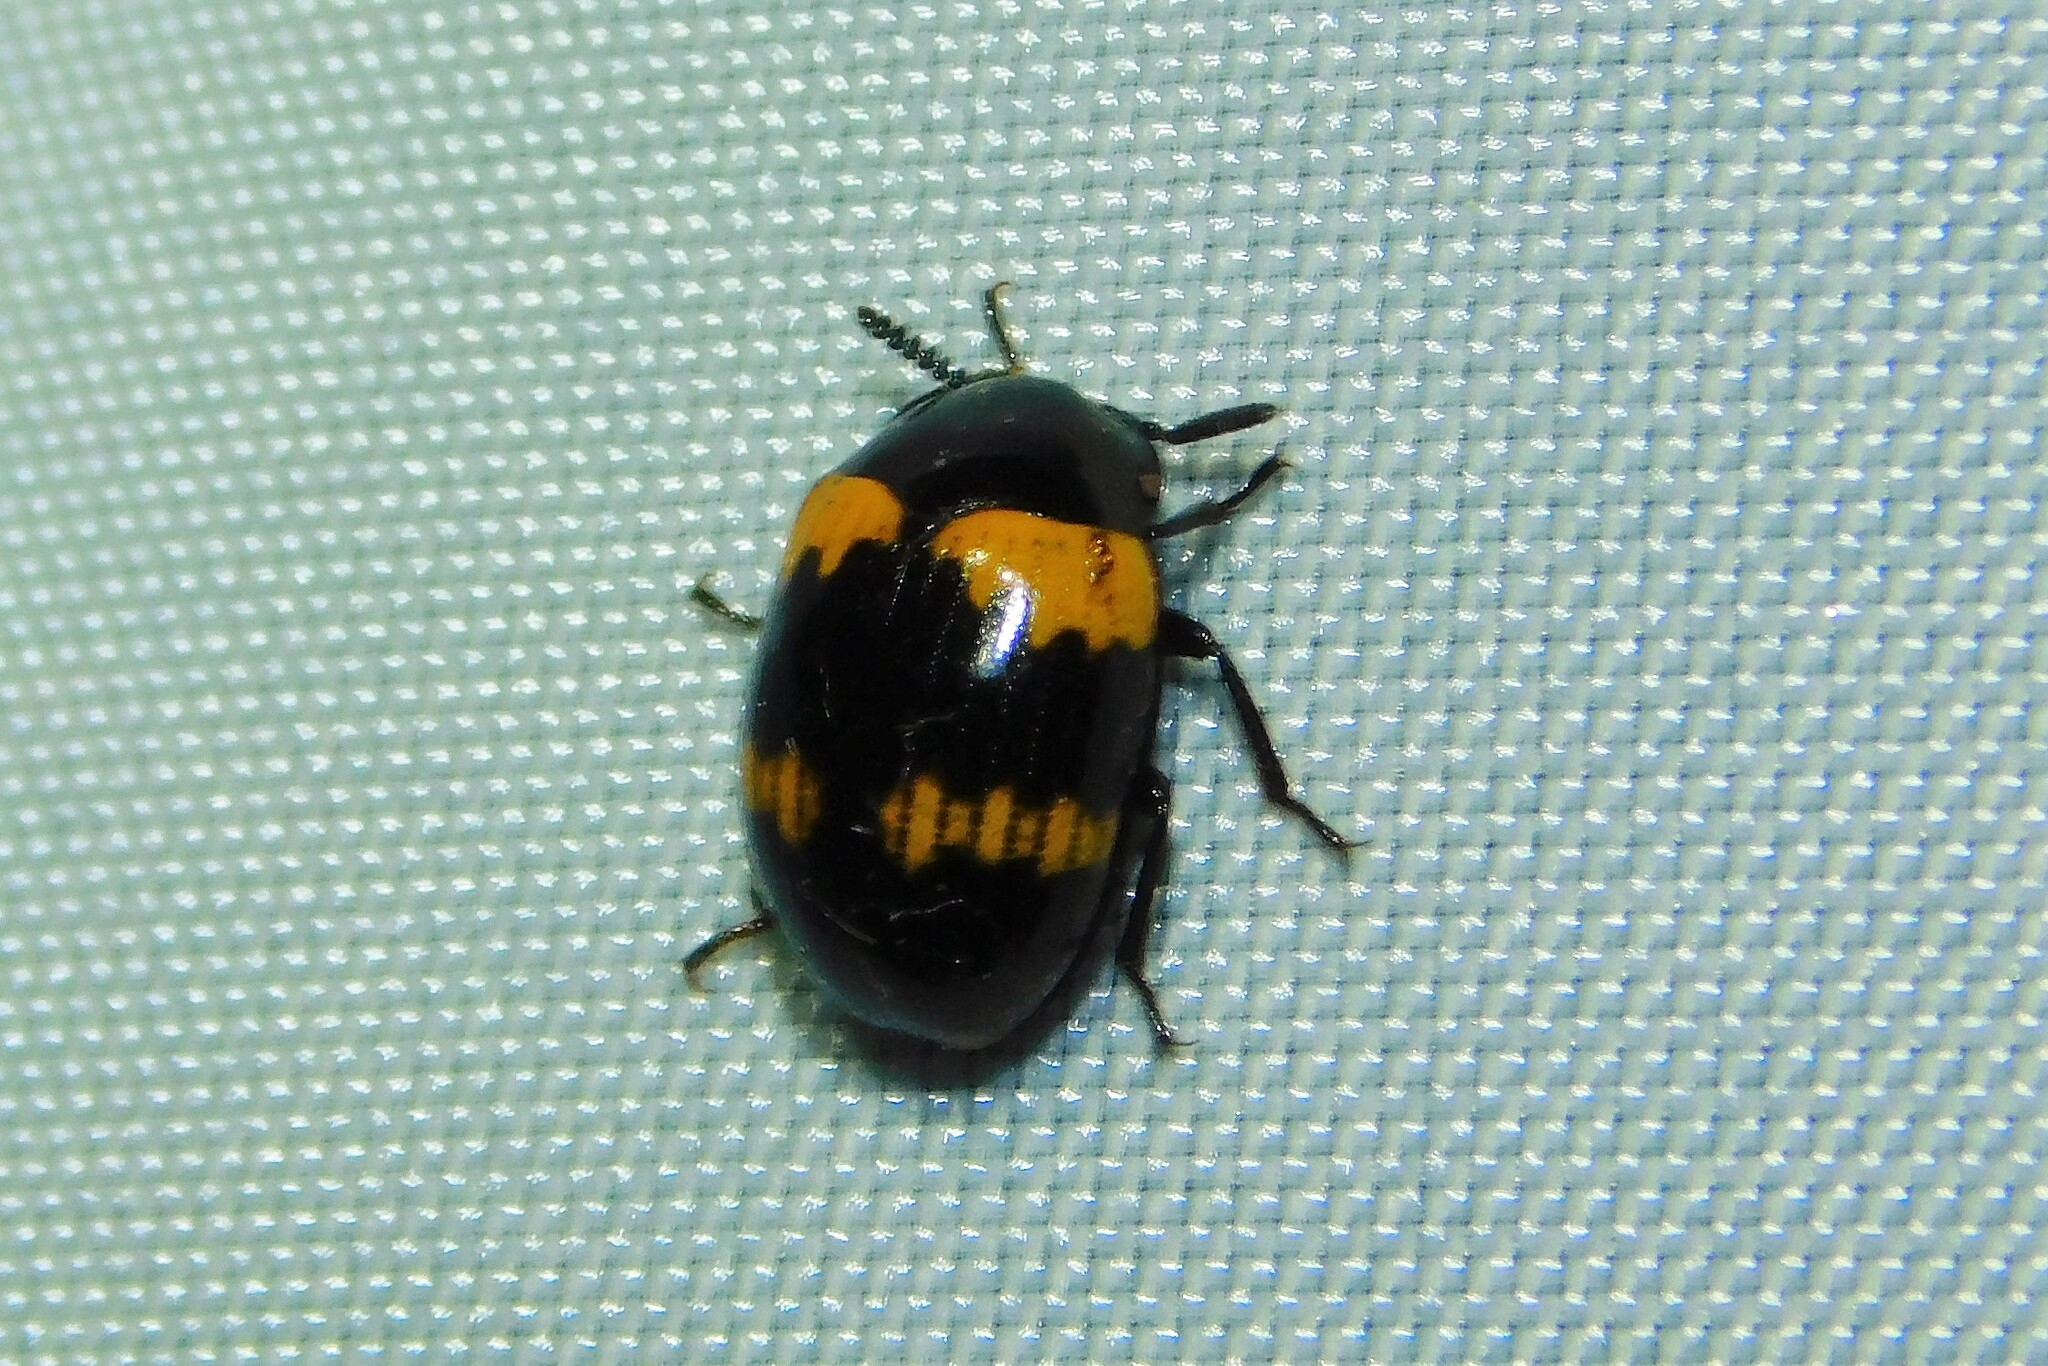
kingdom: Animalia
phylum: Arthropoda
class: Insecta
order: Coleoptera
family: Tenebrionidae
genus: Diaperis
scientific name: Diaperis boleti
